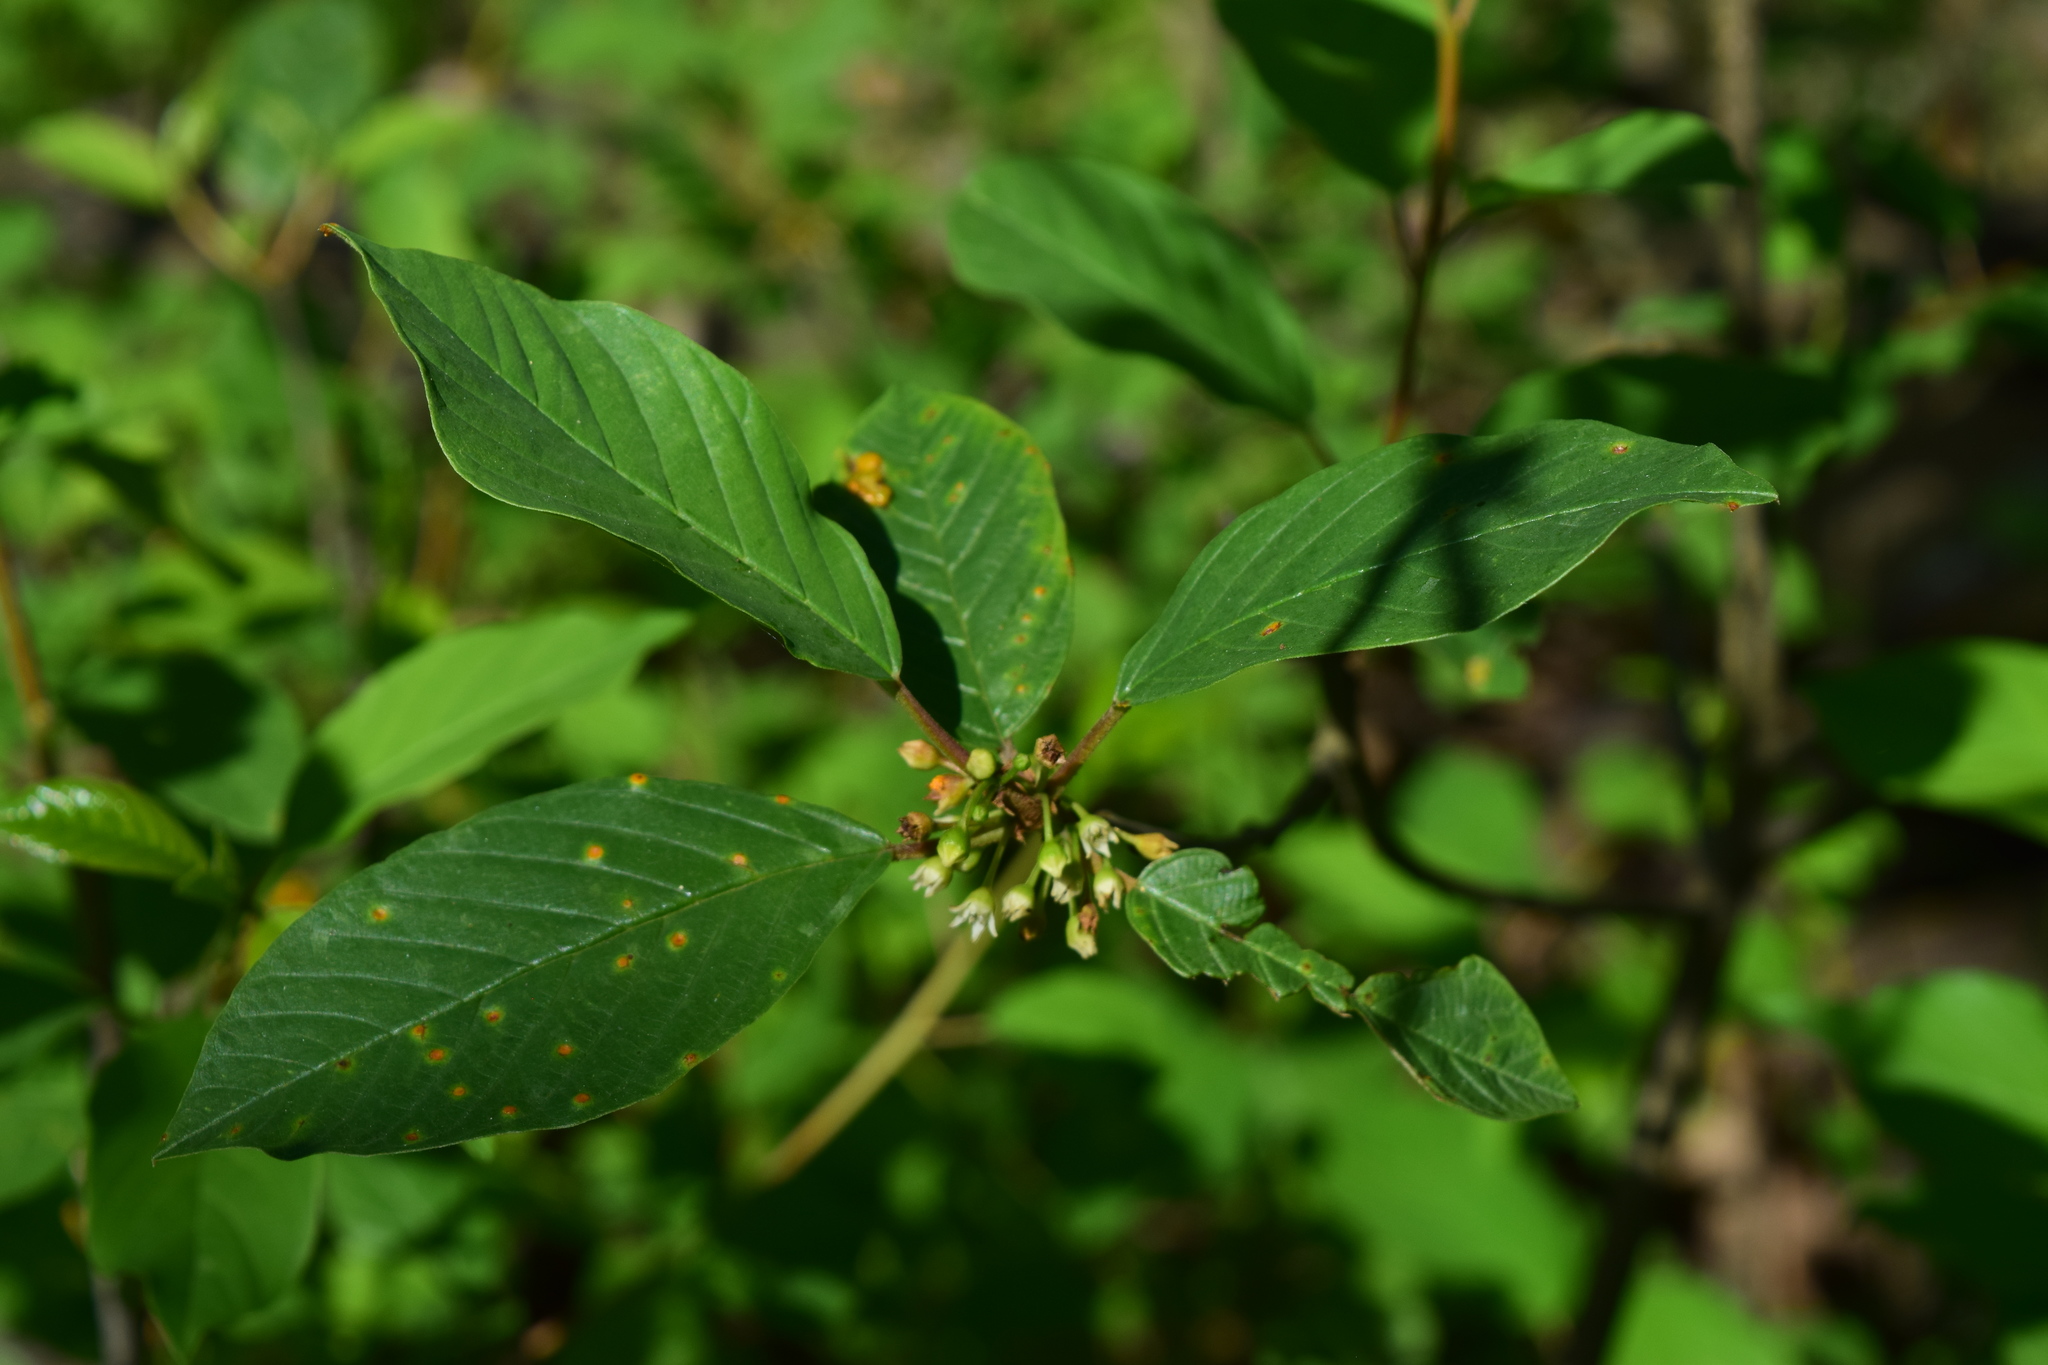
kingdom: Plantae
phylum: Tracheophyta
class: Magnoliopsida
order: Rosales
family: Rhamnaceae
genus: Frangula
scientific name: Frangula alnus
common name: Alder buckthorn
